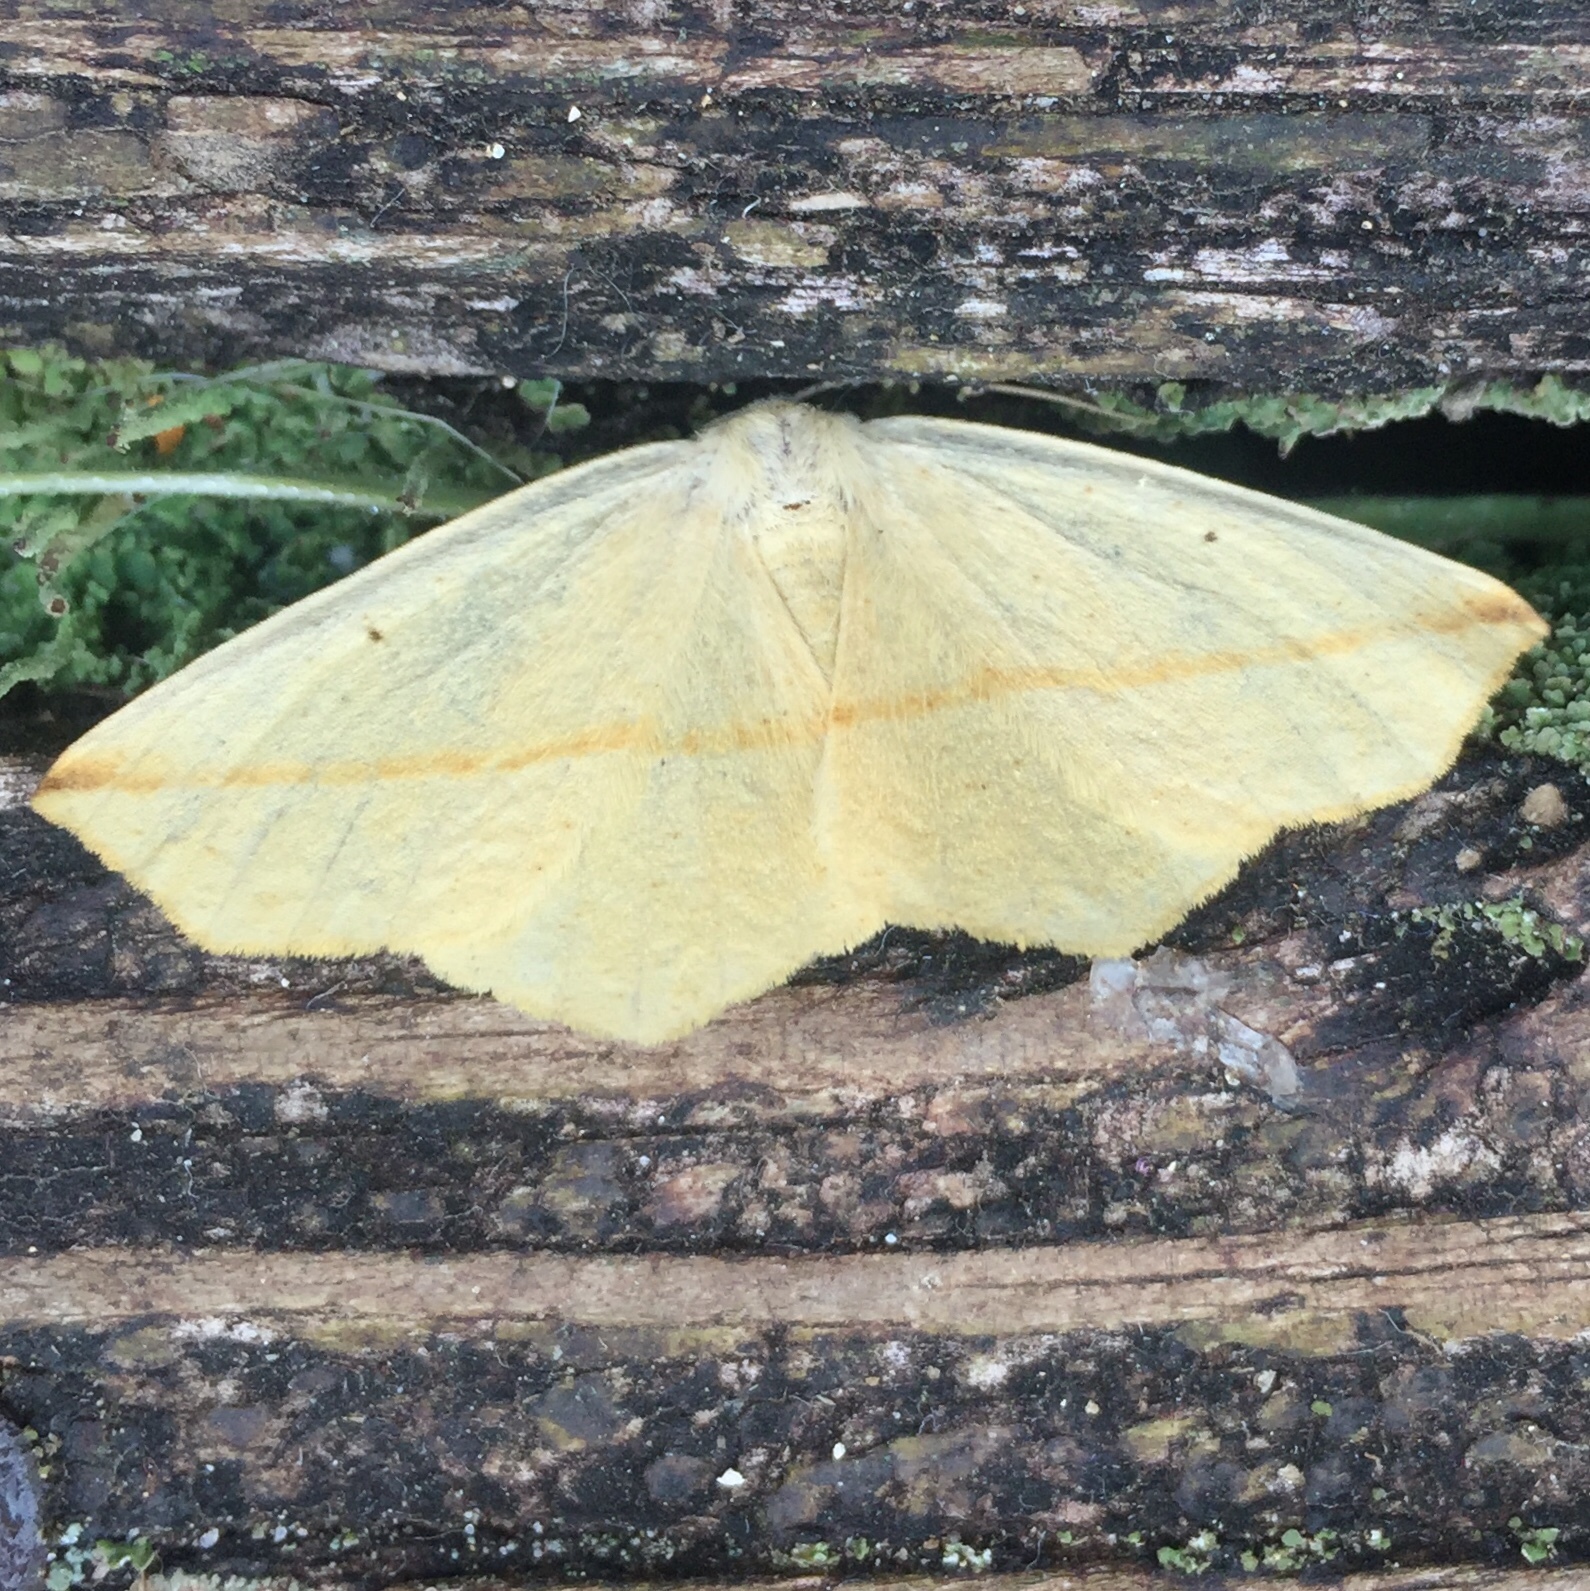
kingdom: Animalia
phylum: Arthropoda
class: Insecta
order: Lepidoptera
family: Geometridae
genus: Tetracis
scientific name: Tetracis crocallata
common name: Yellow slant-line
